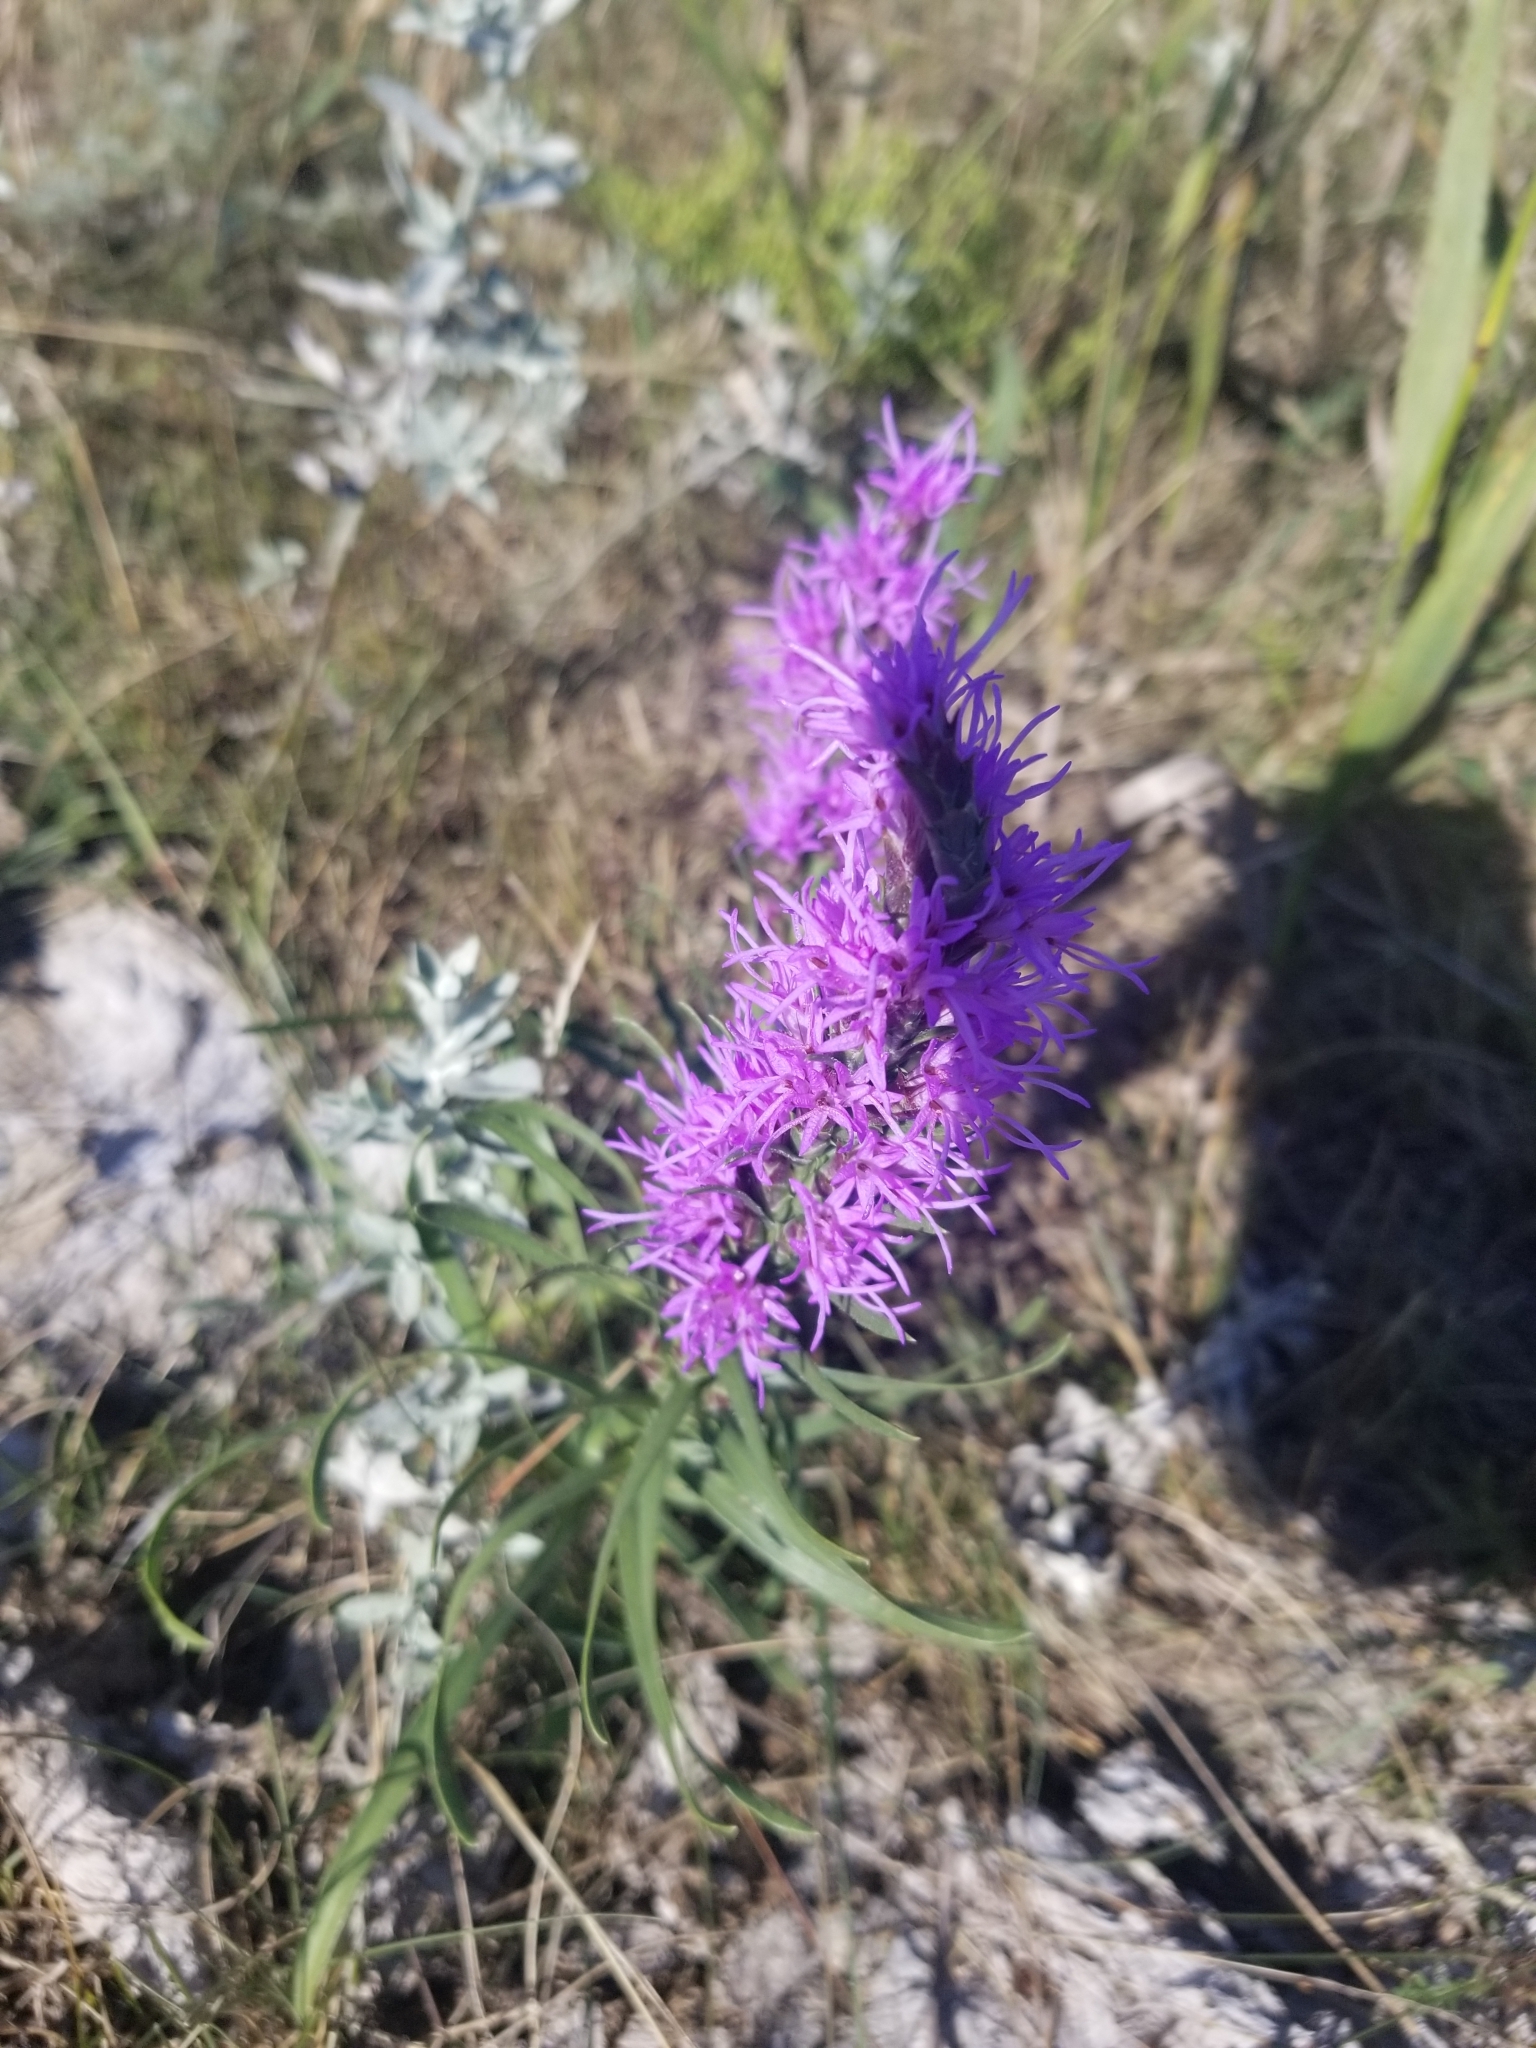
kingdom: Plantae
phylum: Tracheophyta
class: Magnoliopsida
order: Asterales
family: Asteraceae
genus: Liatris
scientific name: Liatris punctata
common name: Dotted gayfeather
